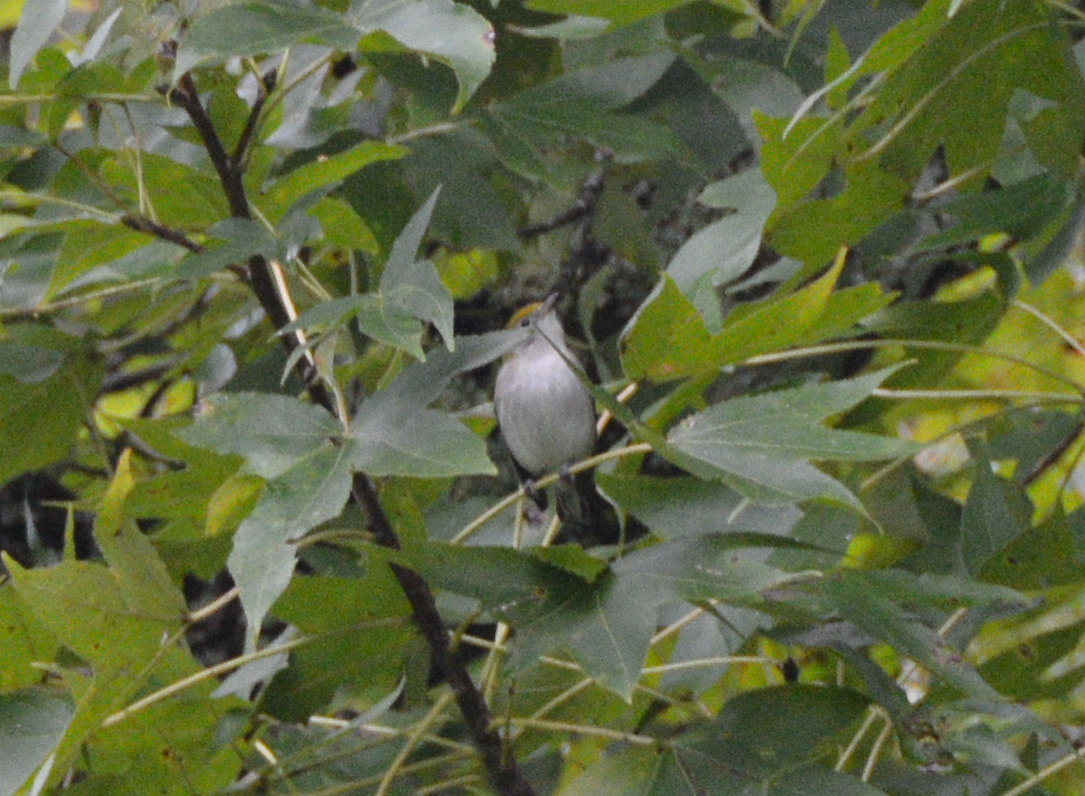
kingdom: Animalia
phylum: Chordata
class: Aves
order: Passeriformes
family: Parulidae
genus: Setophaga
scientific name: Setophaga pensylvanica
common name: Chestnut-sided warbler
